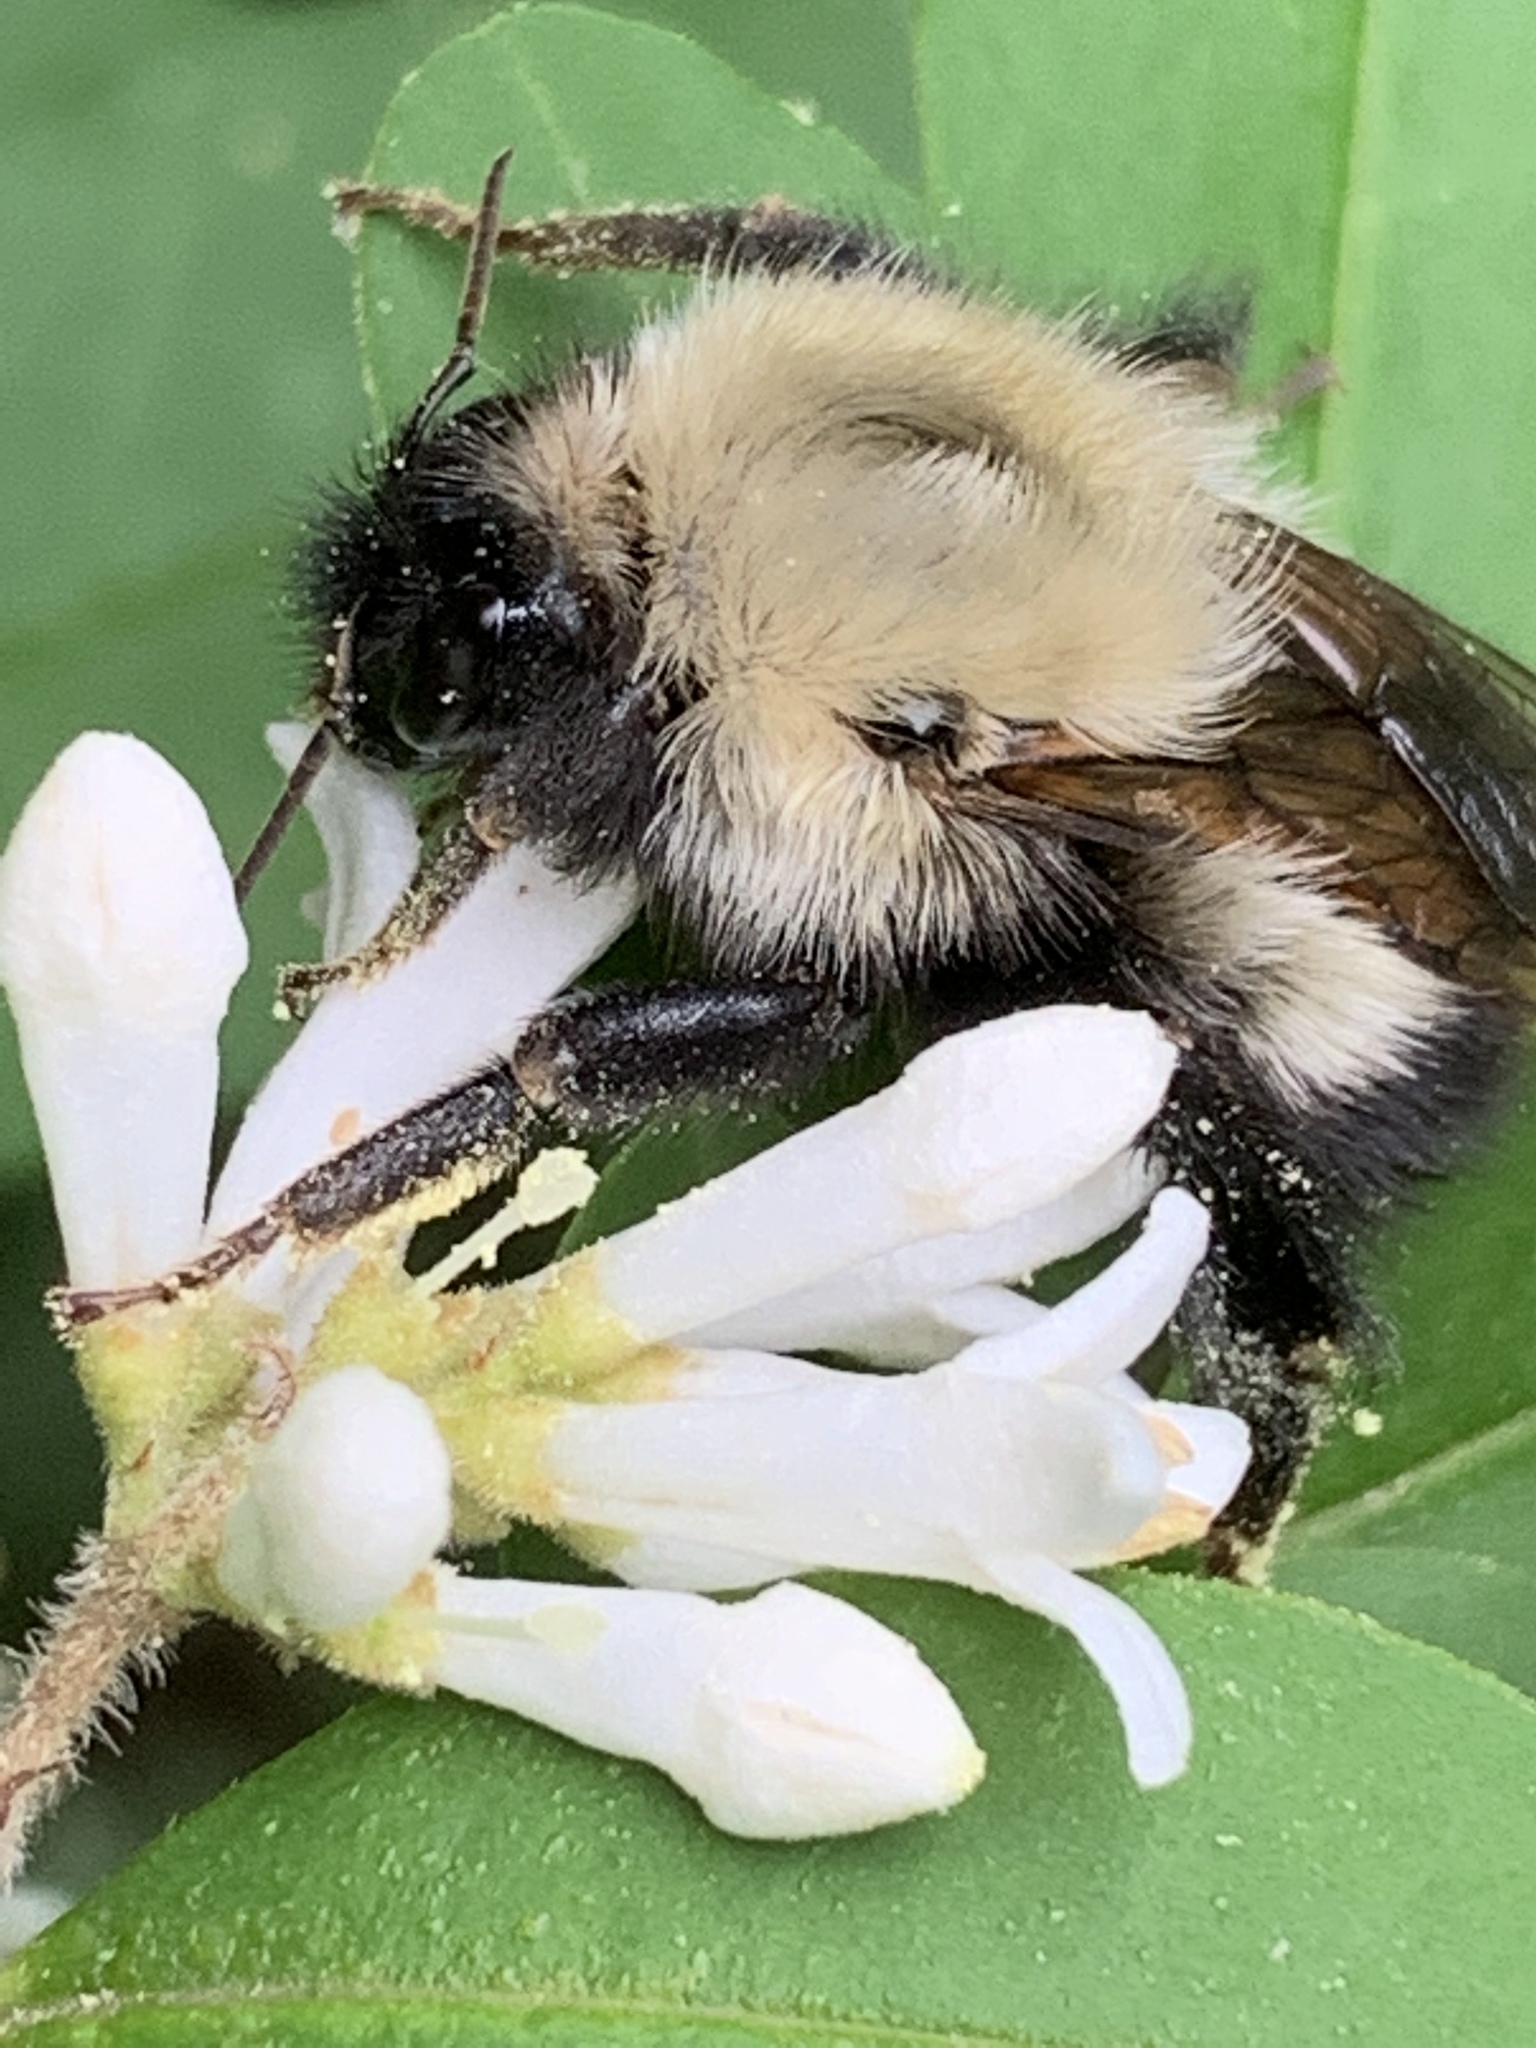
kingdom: Animalia
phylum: Arthropoda
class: Insecta
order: Hymenoptera
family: Apidae
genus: Bombus
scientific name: Bombus perplexus
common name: Confusing bumble bee
